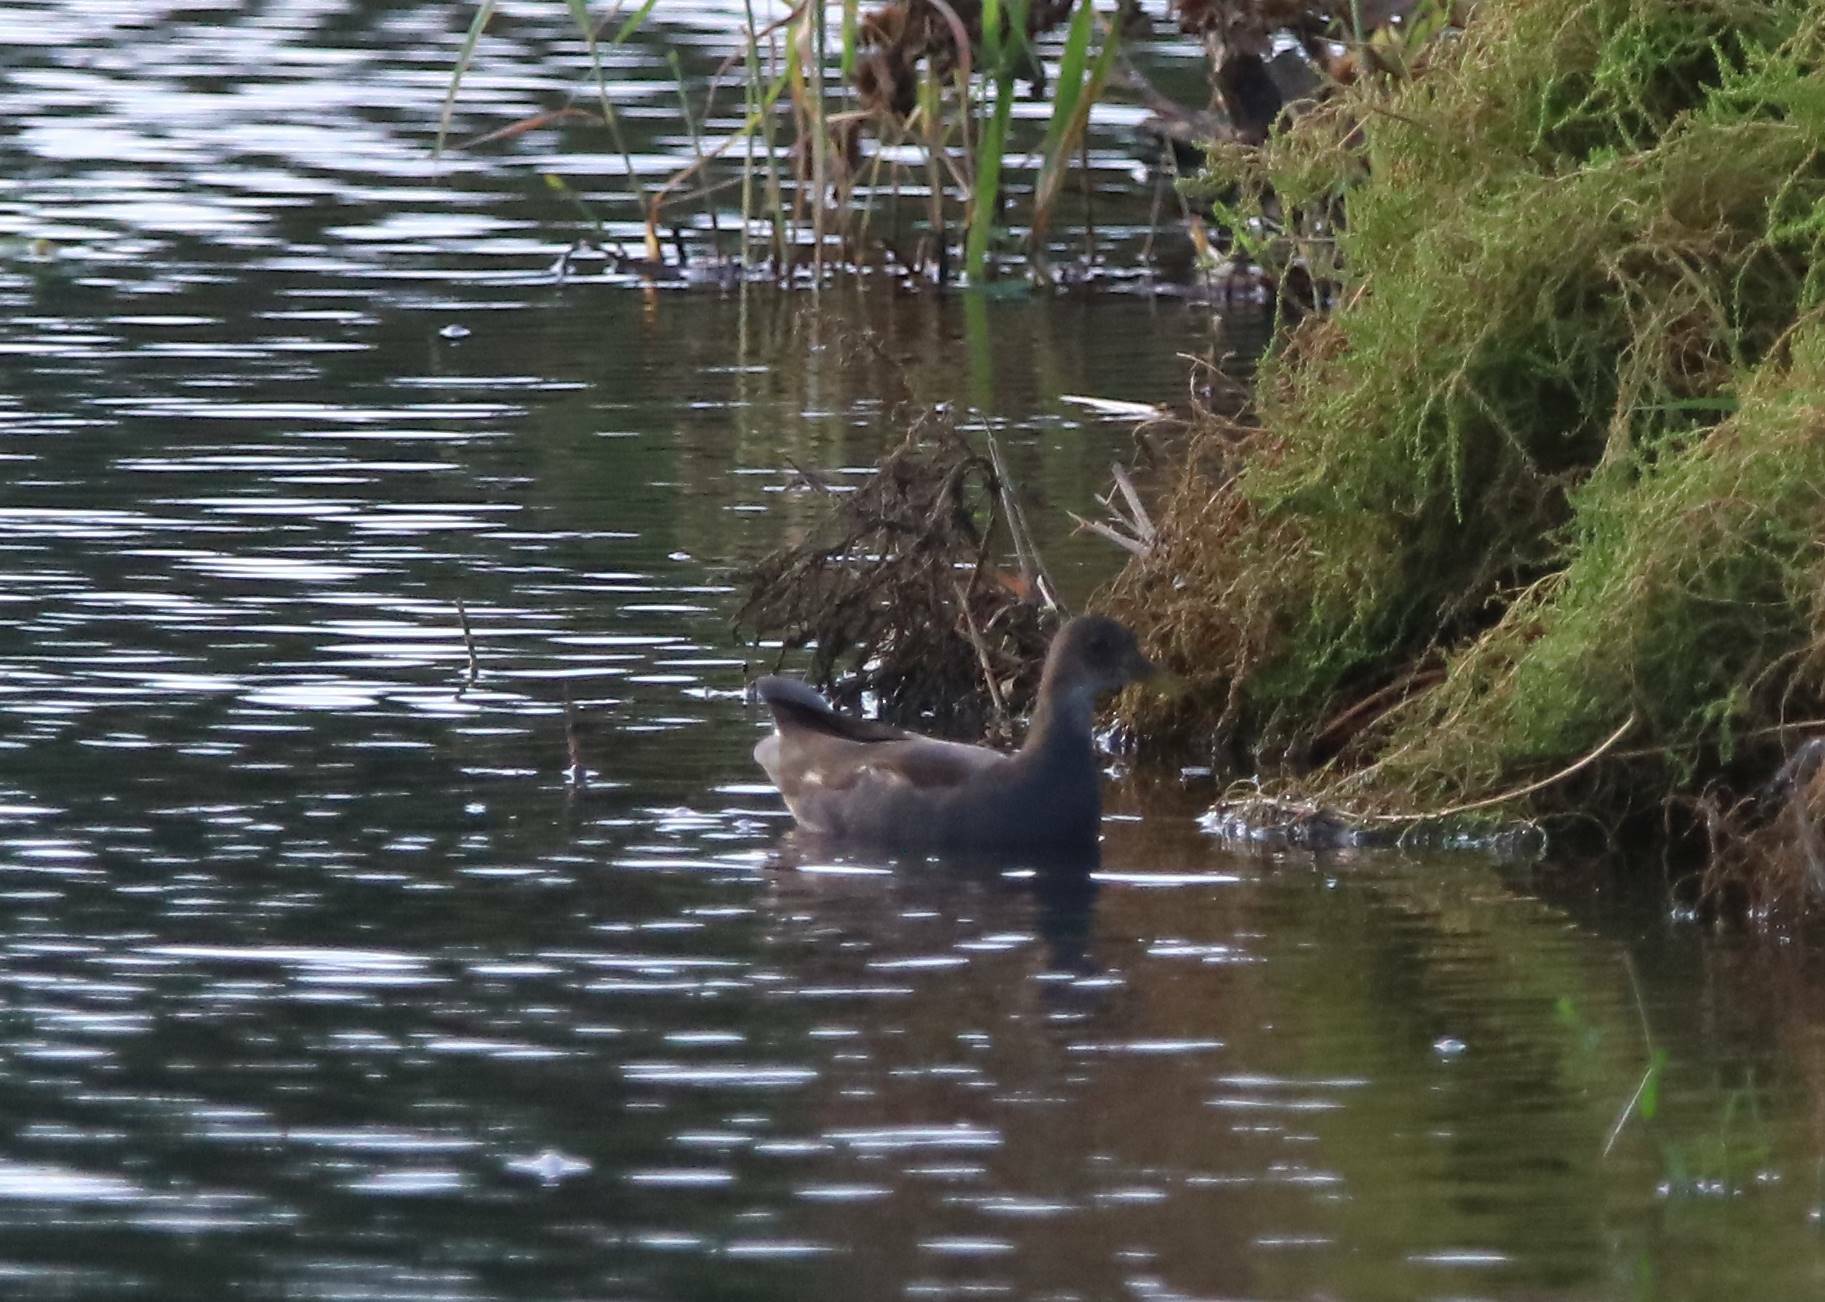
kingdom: Animalia
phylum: Chordata
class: Aves
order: Gruiformes
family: Rallidae
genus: Gallinula
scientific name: Gallinula chloropus
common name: Common moorhen
